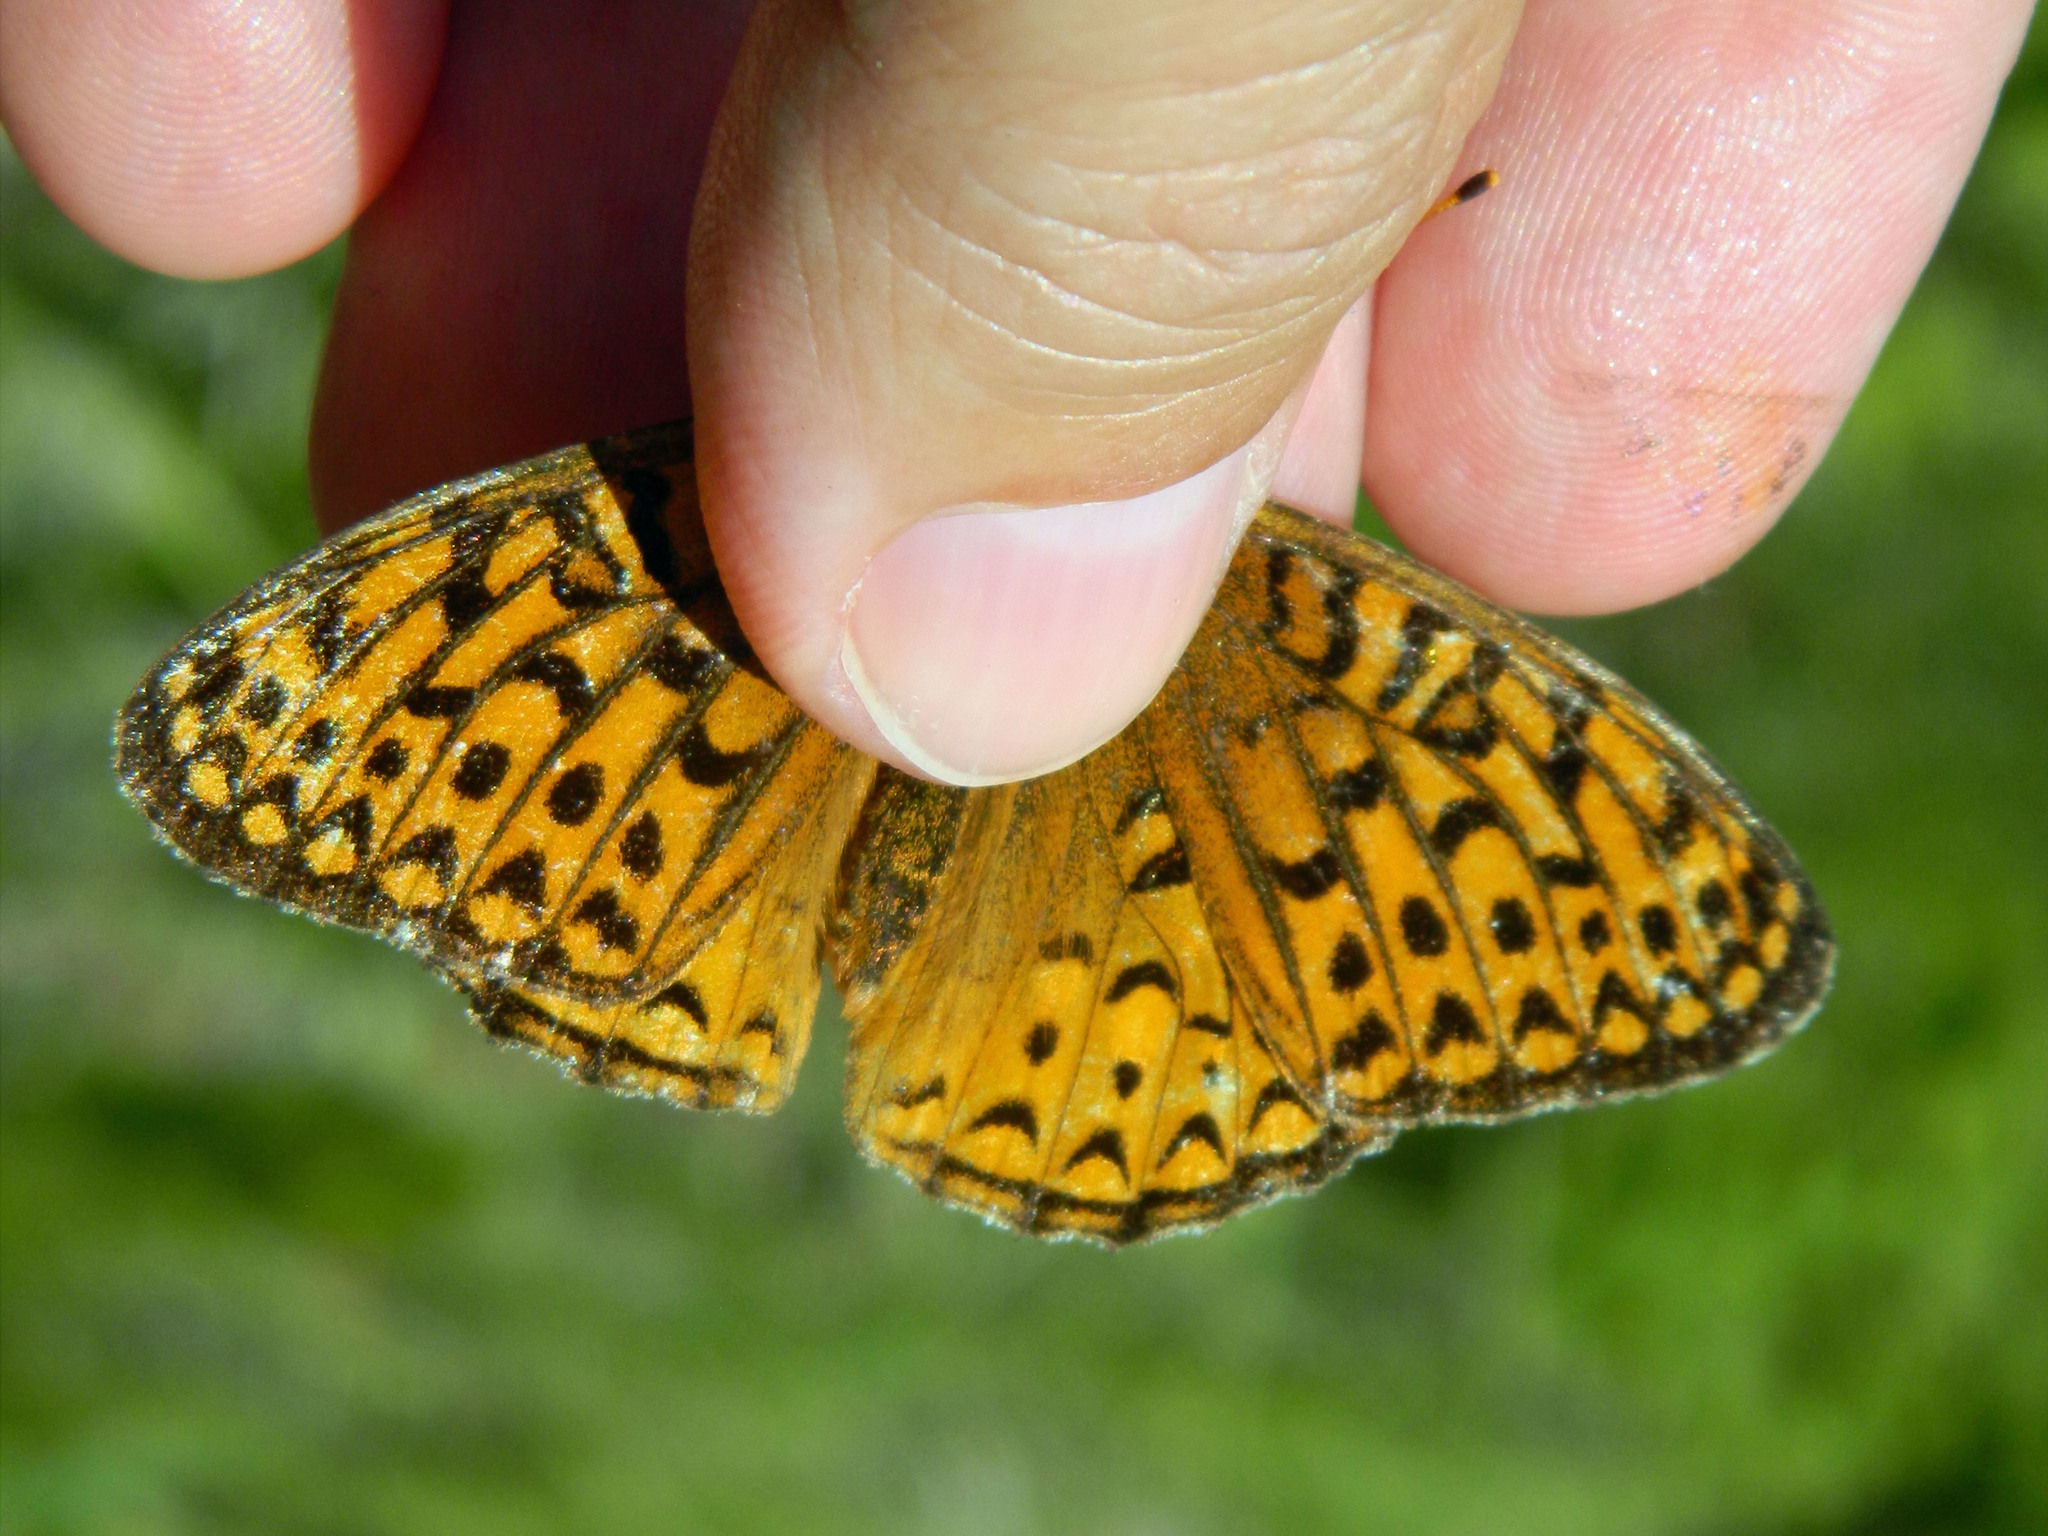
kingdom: Animalia
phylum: Arthropoda
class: Insecta
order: Lepidoptera
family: Nymphalidae
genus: Speyeria
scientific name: Speyeria atlantis
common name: Atlantis fritillary
